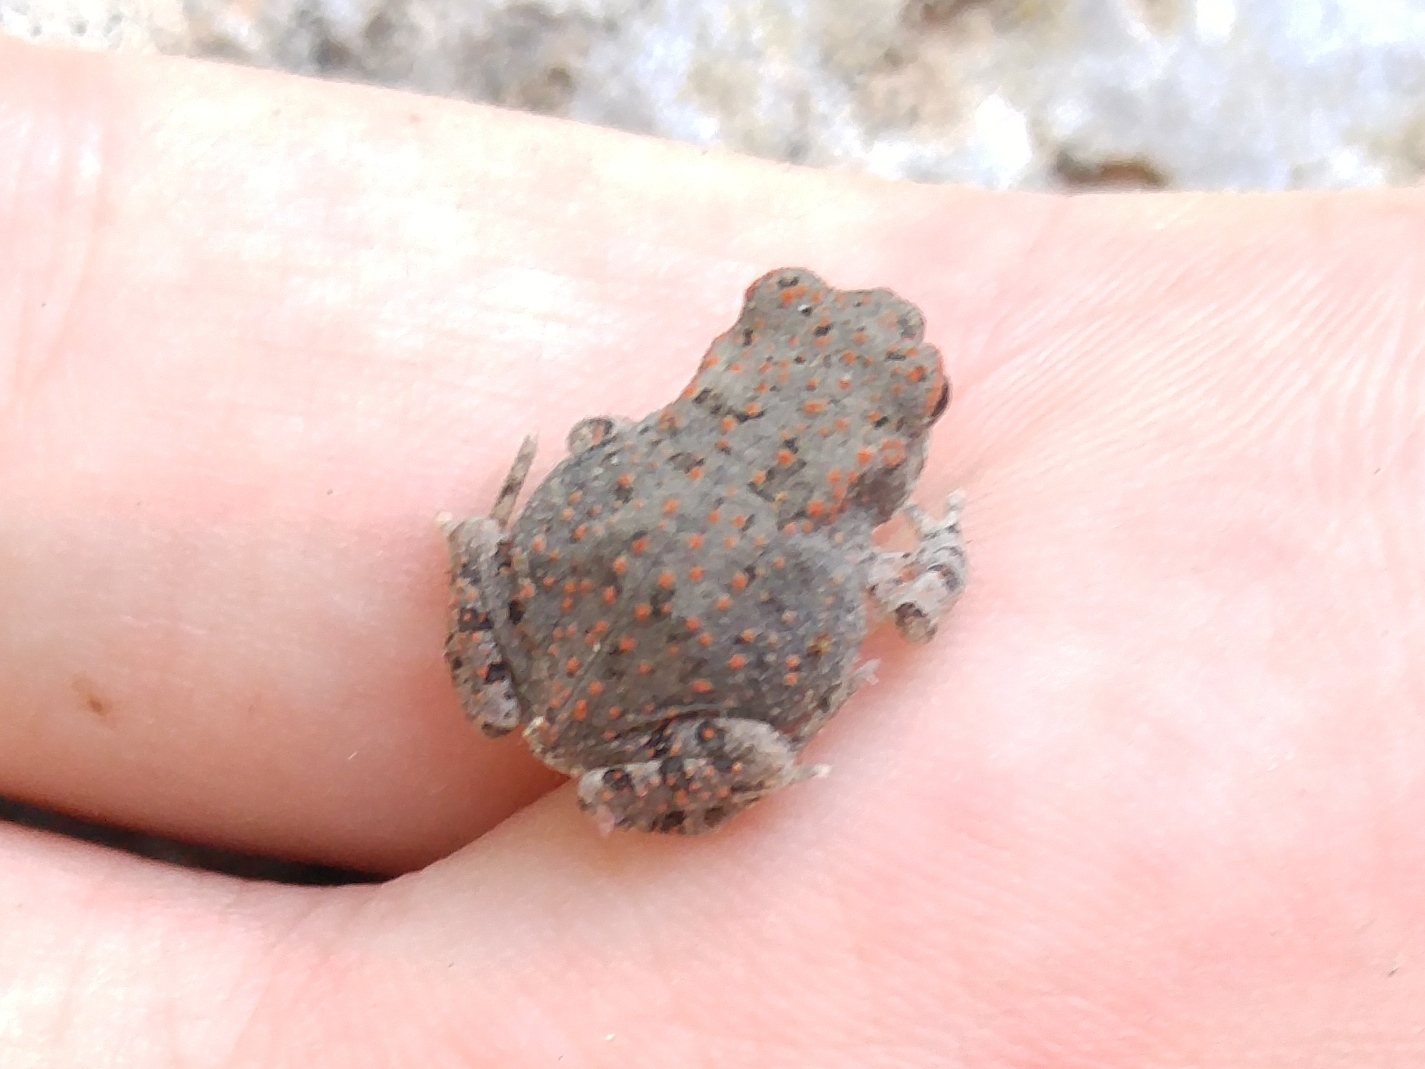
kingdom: Animalia
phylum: Chordata
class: Amphibia
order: Anura
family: Bufonidae
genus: Sclerophrys
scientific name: Sclerophrys mauritanica
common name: Berber toad
